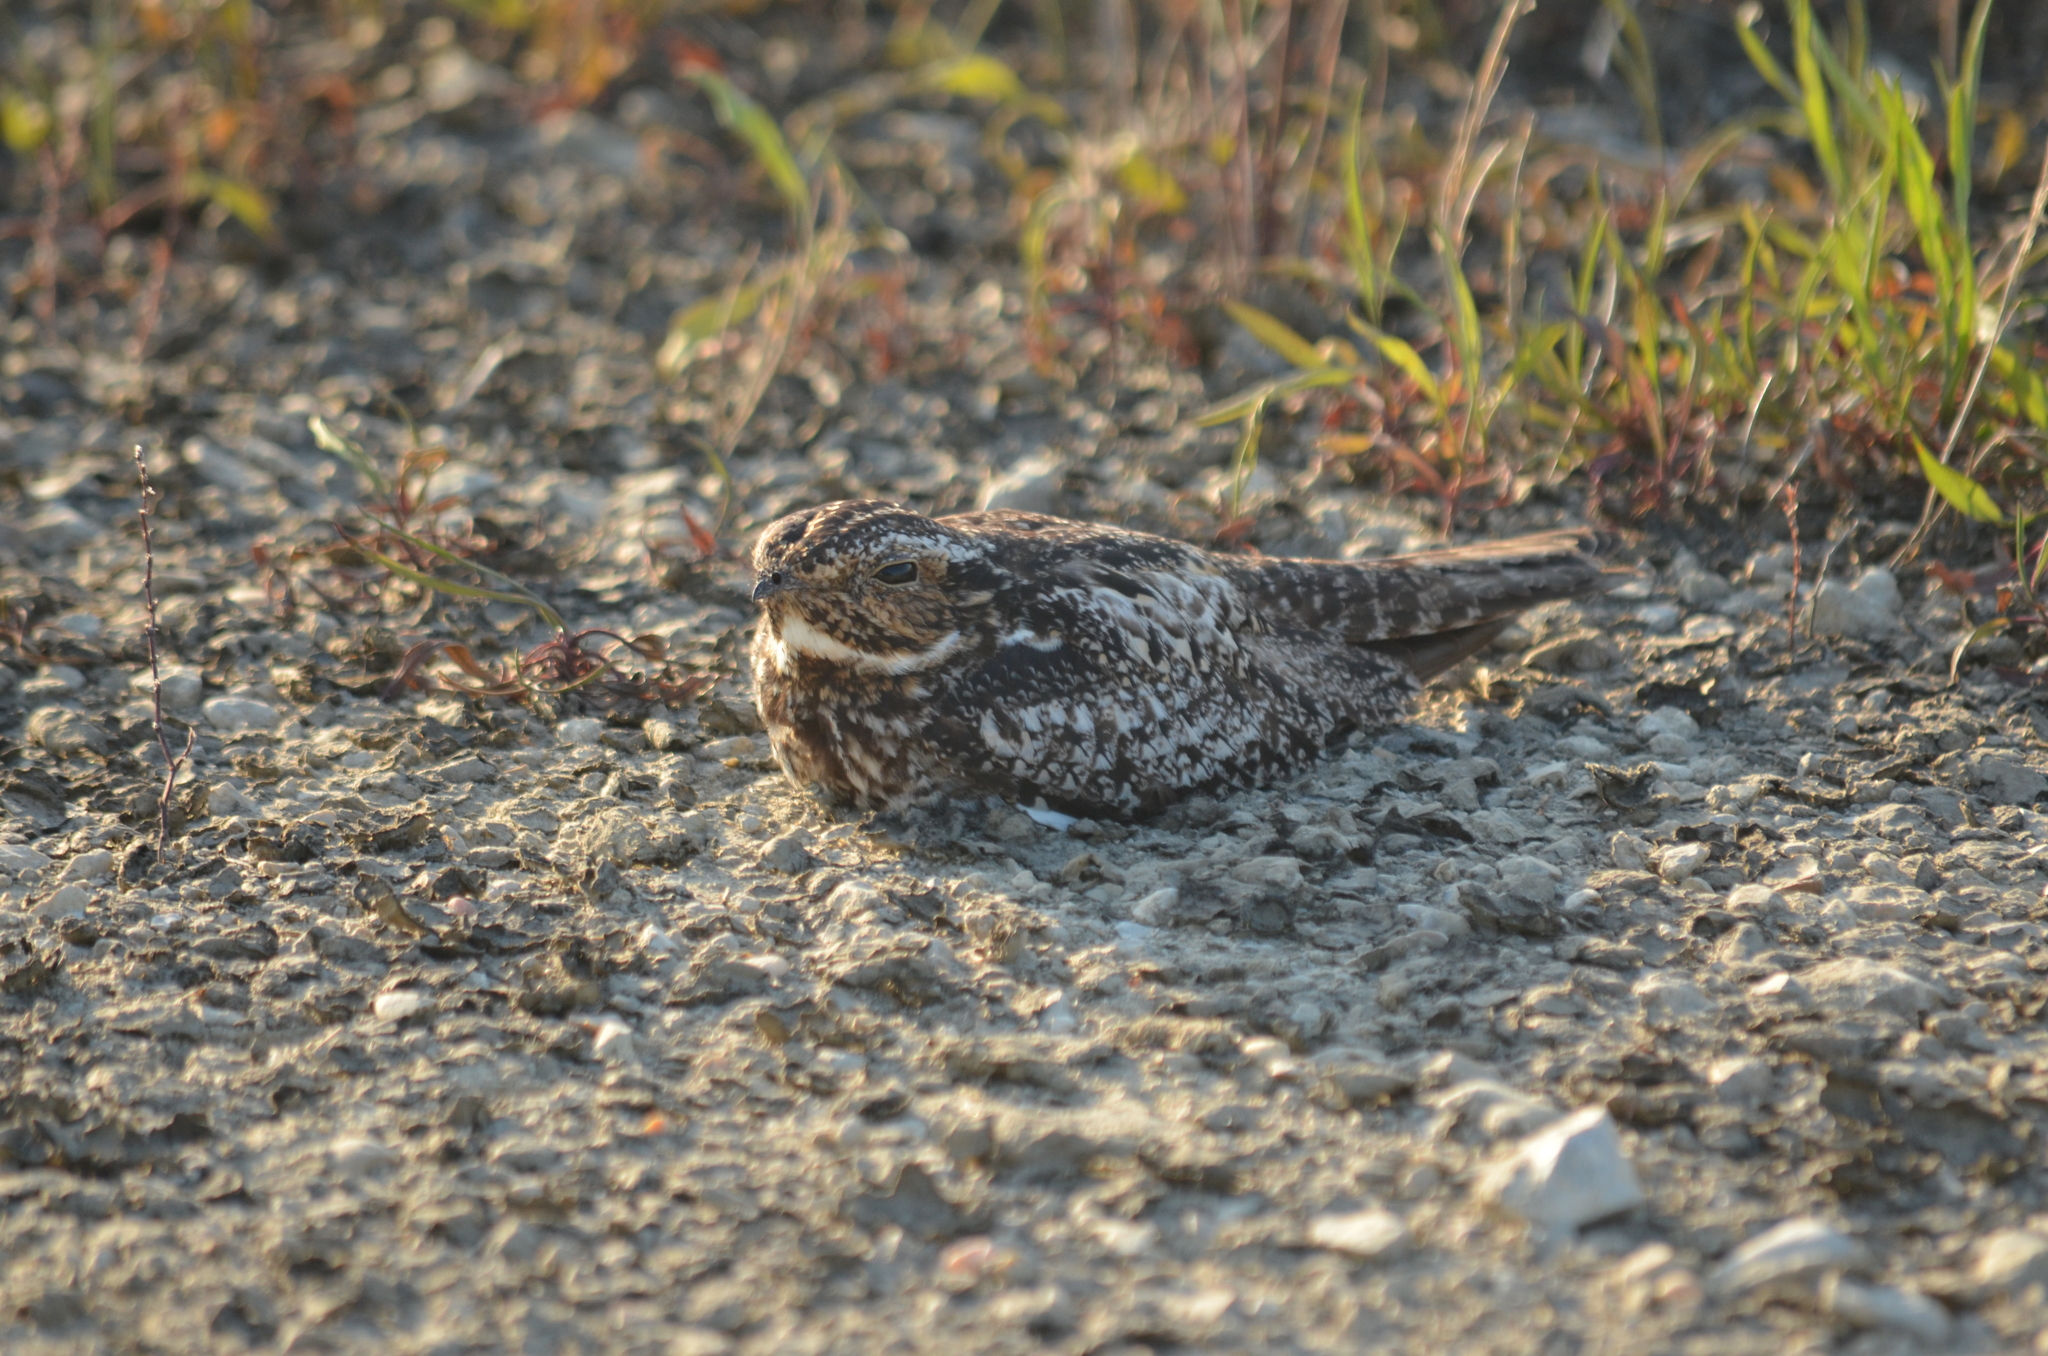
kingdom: Animalia
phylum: Chordata
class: Aves
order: Caprimulgiformes
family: Caprimulgidae
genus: Chordeiles
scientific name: Chordeiles minor
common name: Common nighthawk
